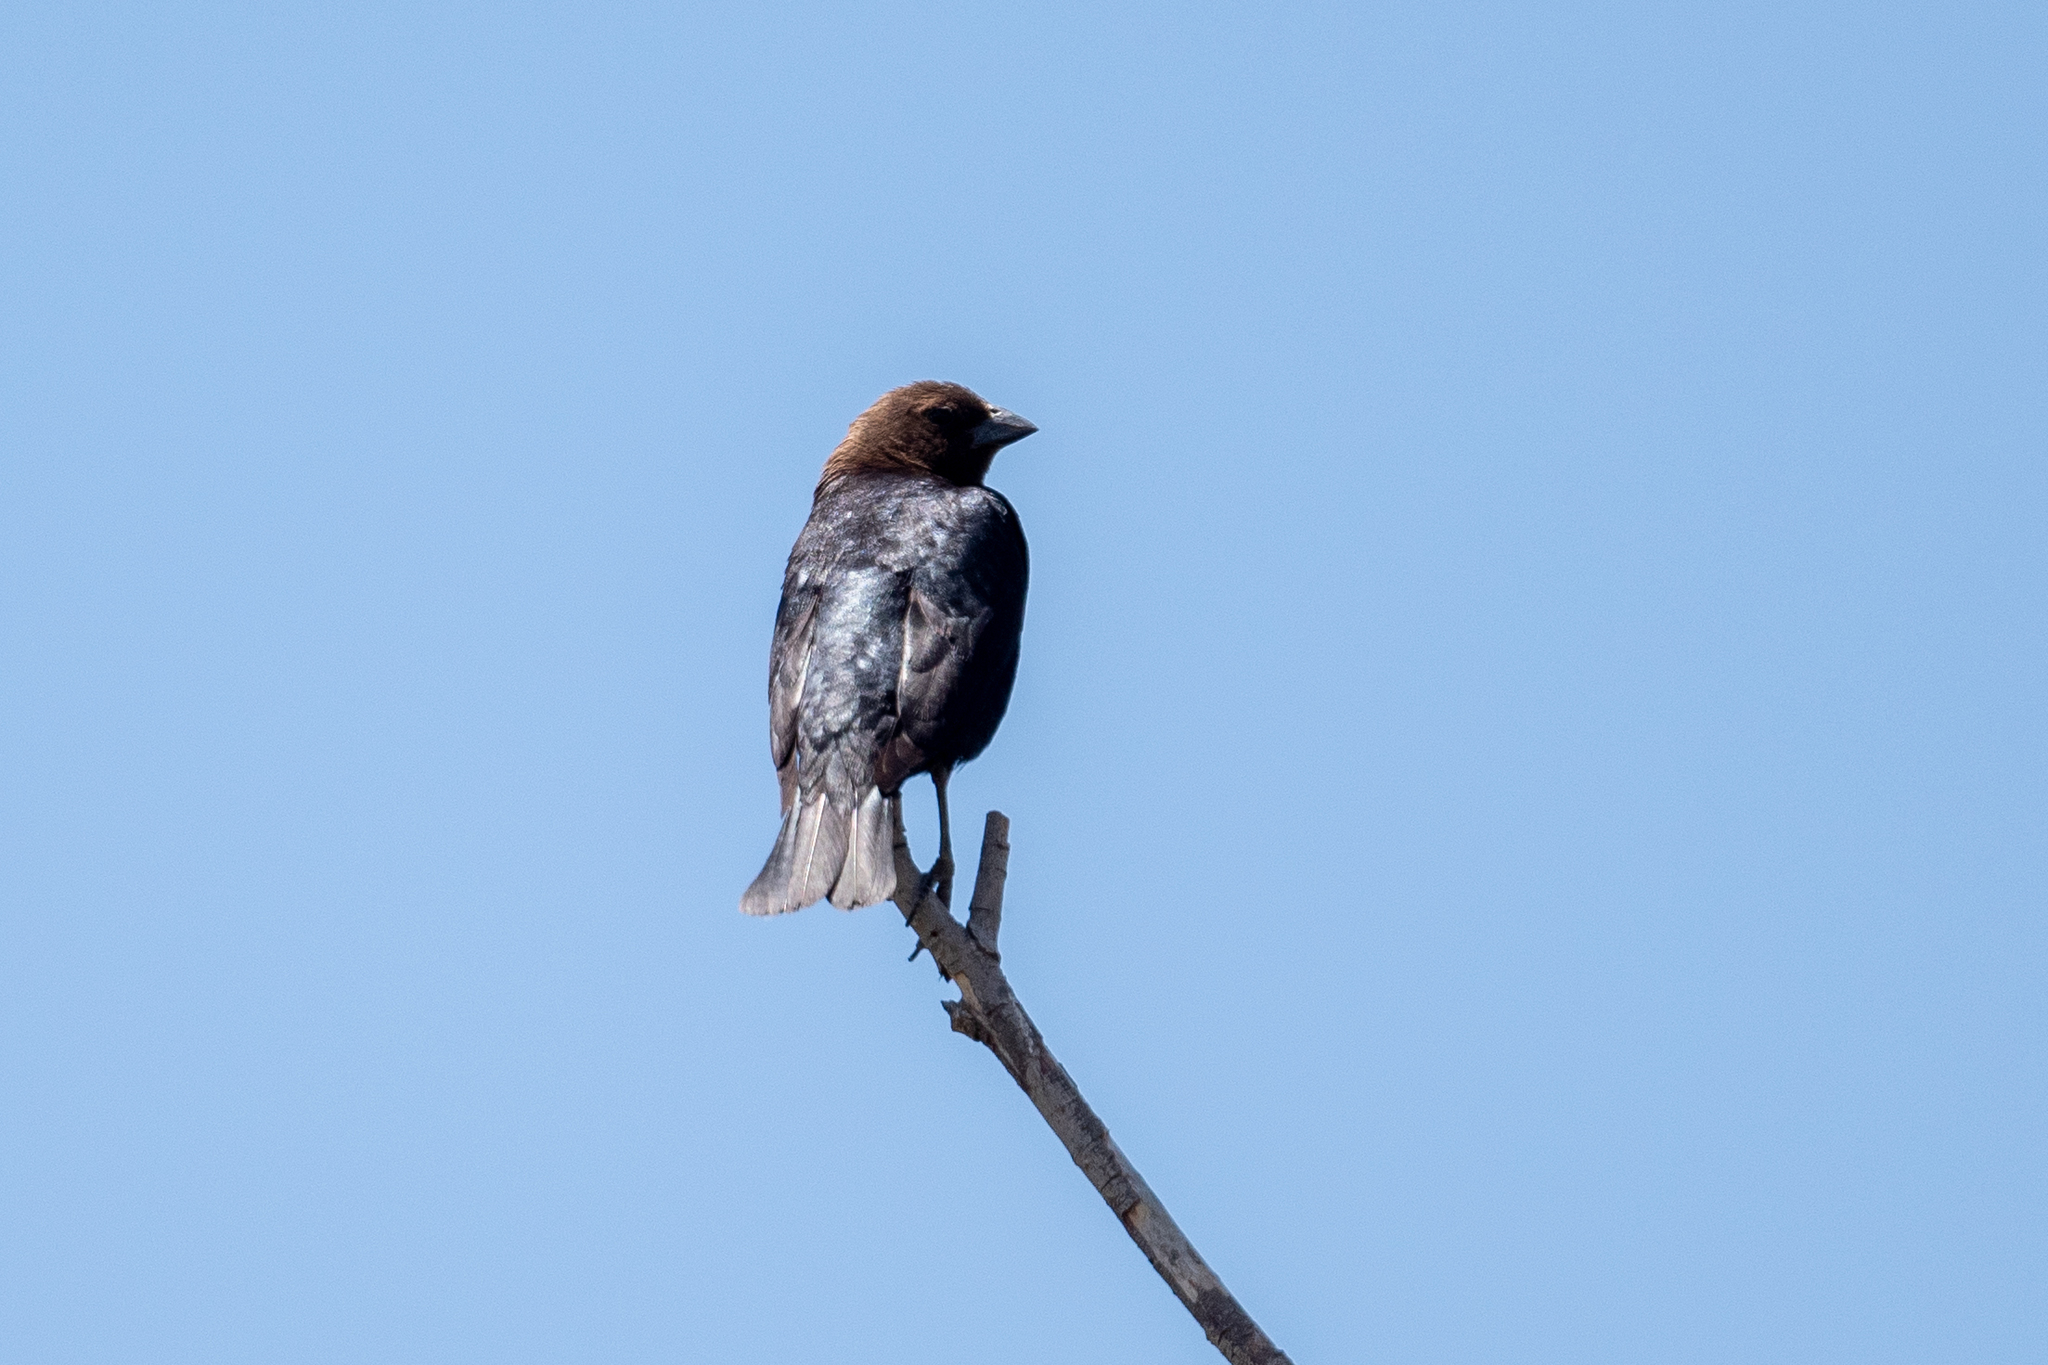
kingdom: Animalia
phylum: Chordata
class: Aves
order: Passeriformes
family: Icteridae
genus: Molothrus
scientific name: Molothrus ater
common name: Brown-headed cowbird
